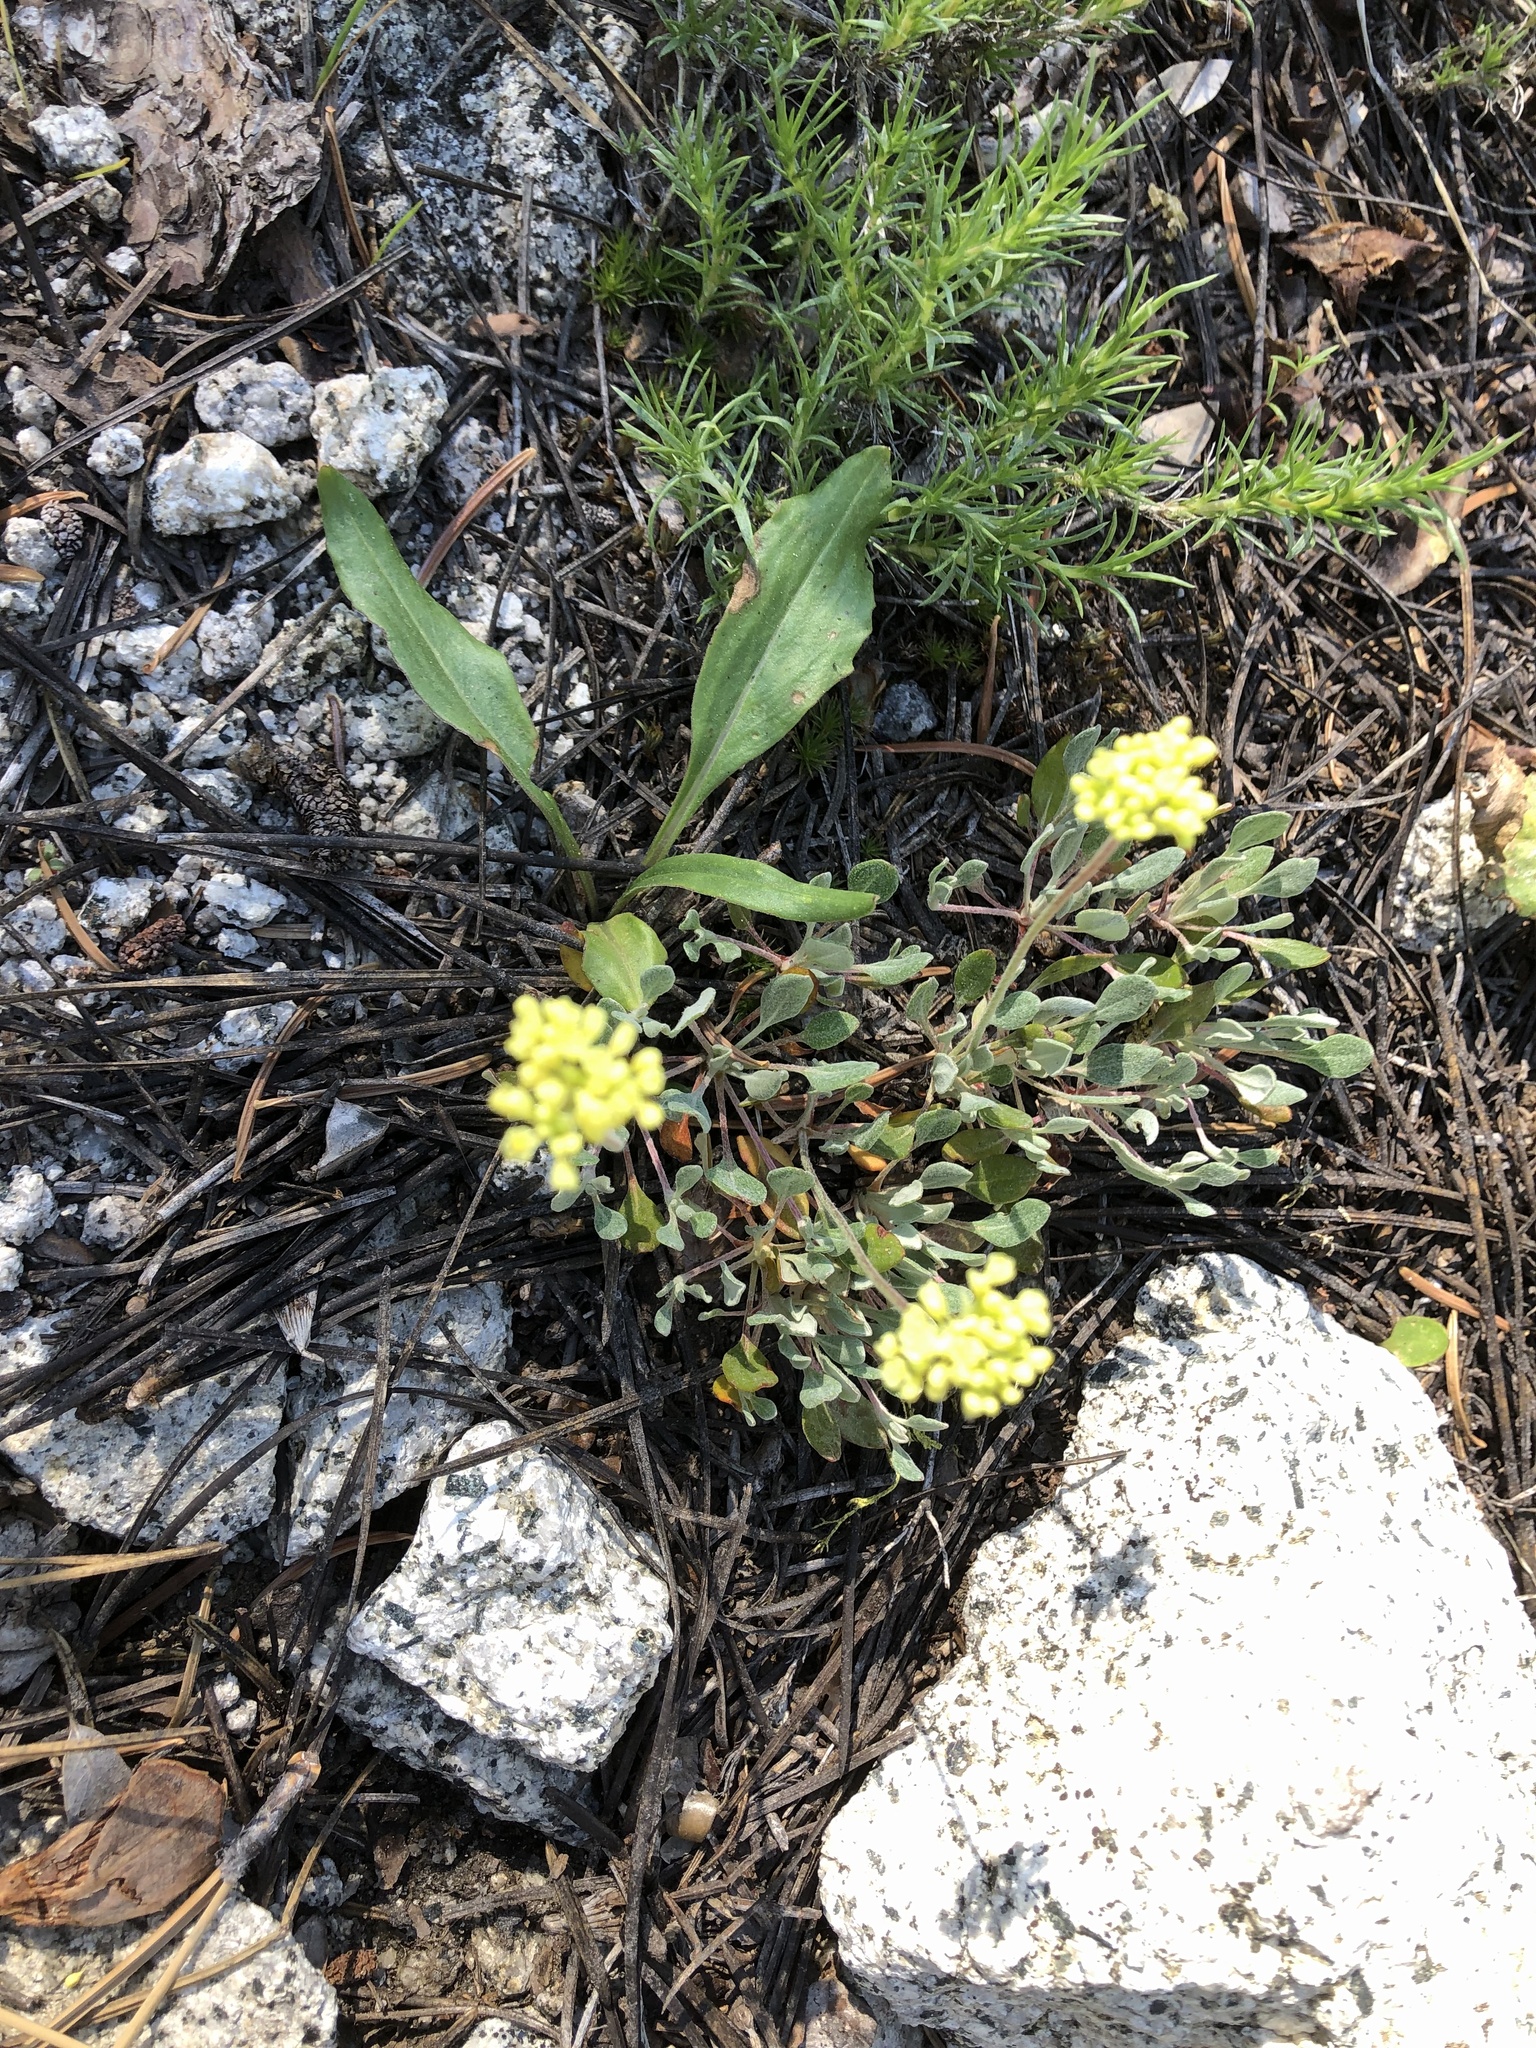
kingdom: Plantae
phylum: Tracheophyta
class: Magnoliopsida
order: Caryophyllales
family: Polygonaceae
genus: Eriogonum
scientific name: Eriogonum umbellatum
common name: Sulfur-buckwheat
